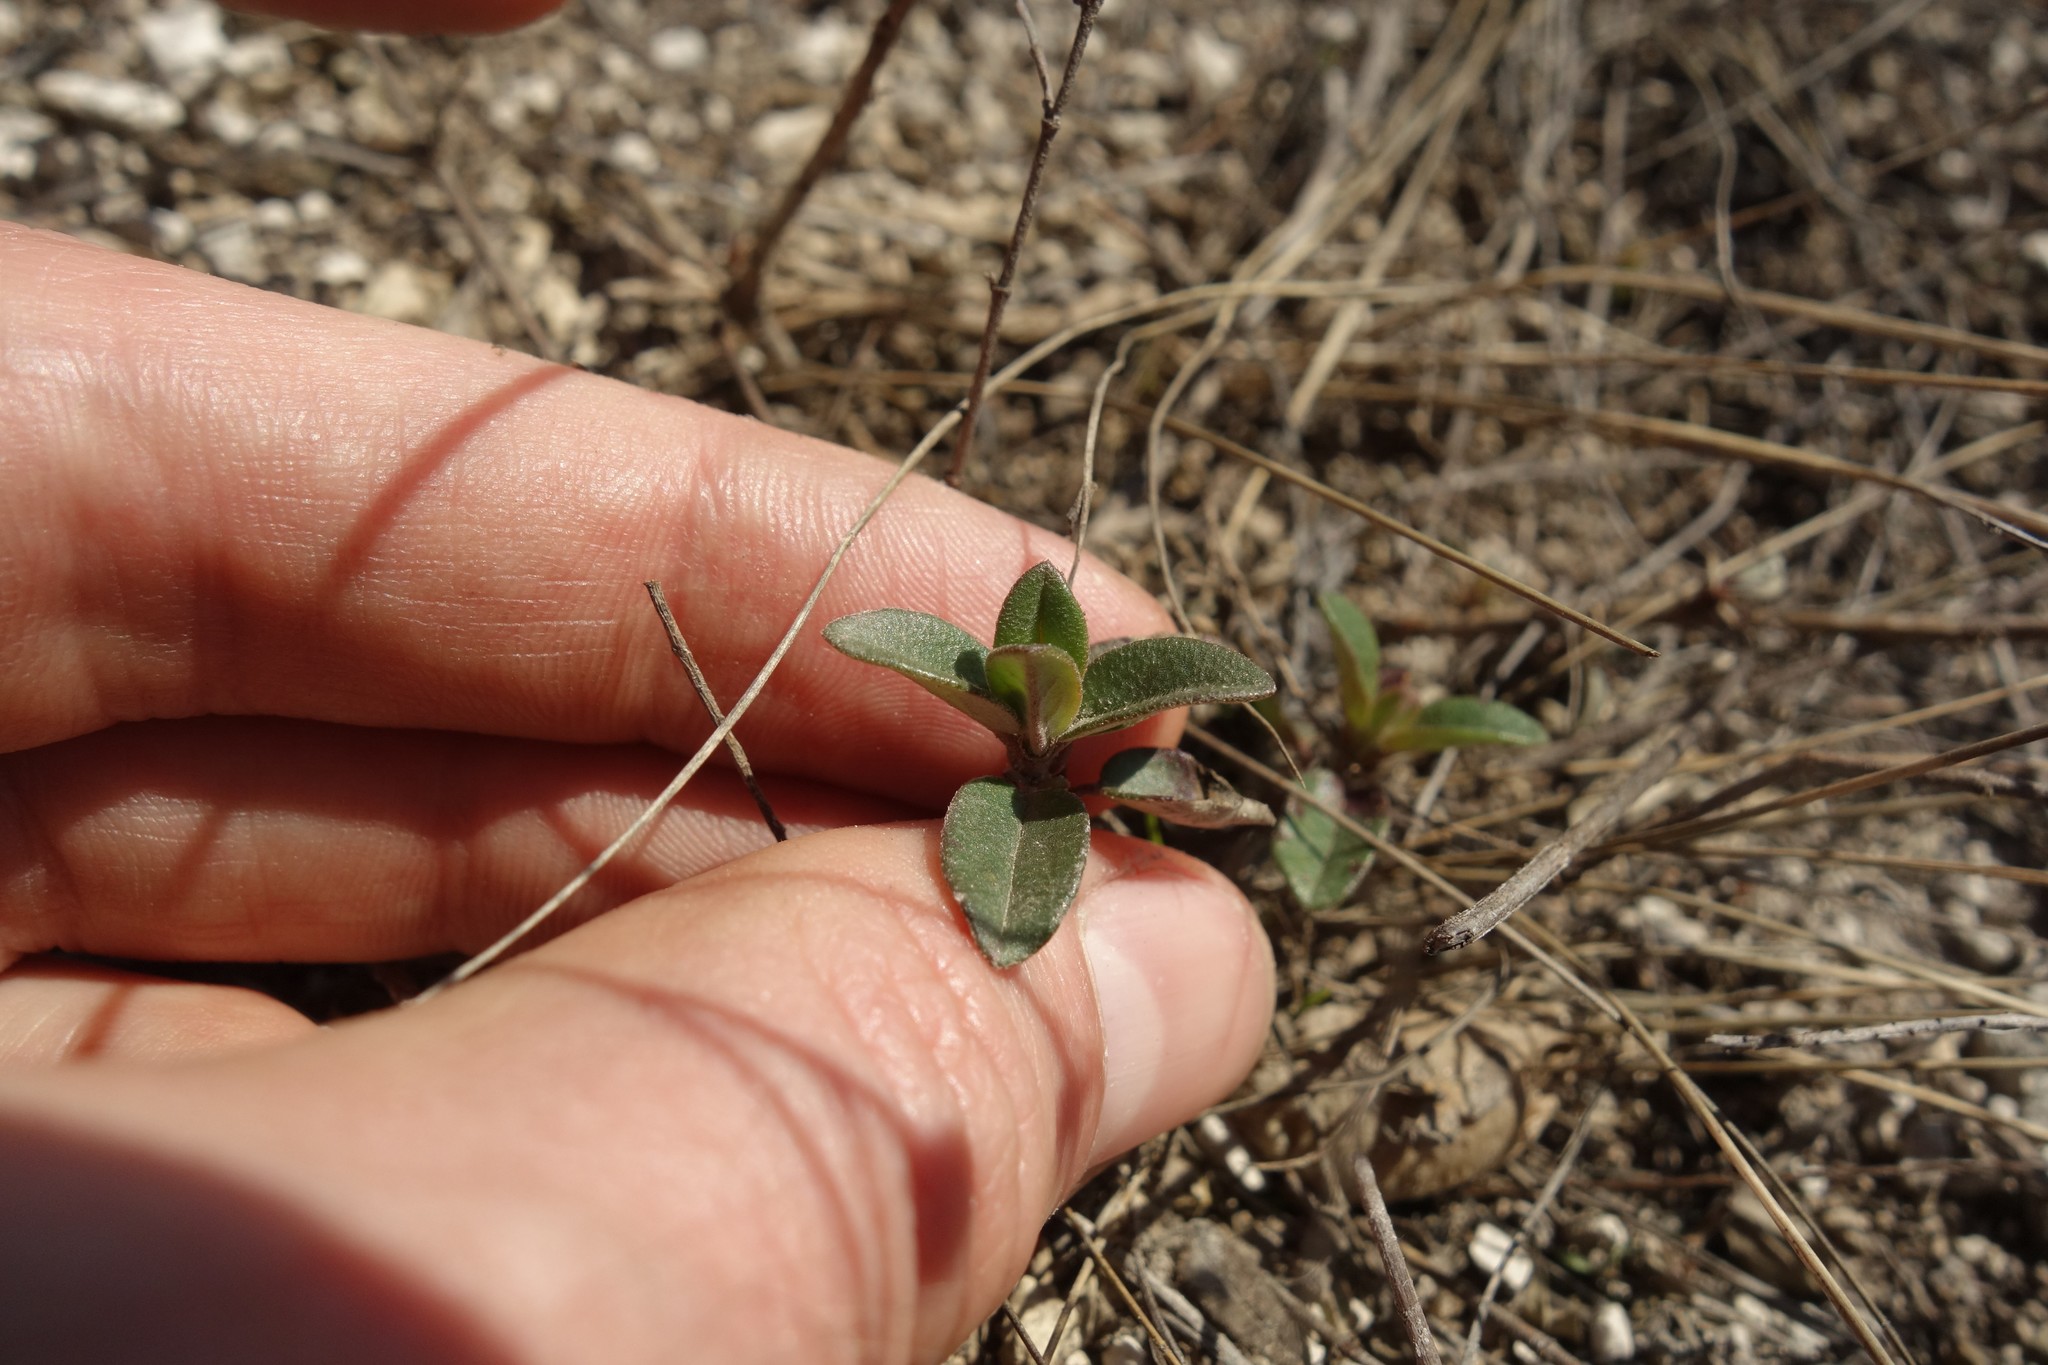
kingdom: Plantae
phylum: Tracheophyta
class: Magnoliopsida
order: Malvales
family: Cistaceae
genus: Helianthemum
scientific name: Helianthemum nummularium
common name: Common rock-rose
